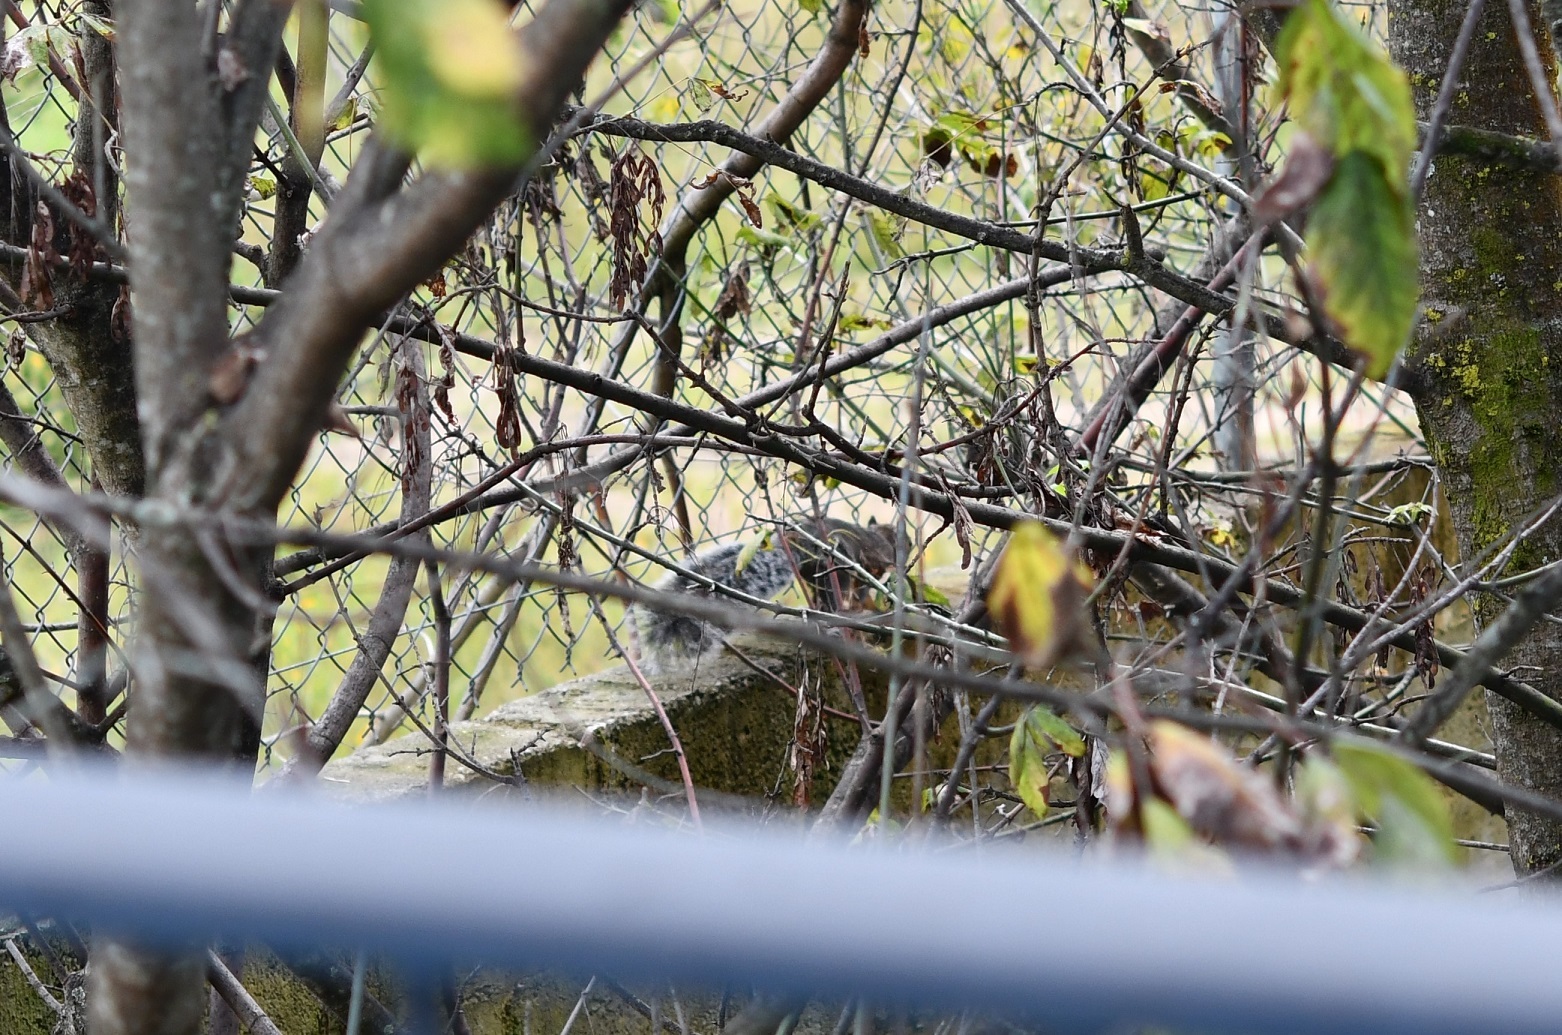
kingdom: Animalia
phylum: Chordata
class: Mammalia
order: Rodentia
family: Sciuridae
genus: Sciurus
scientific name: Sciurus aureogaster
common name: Red-bellied squirrel
